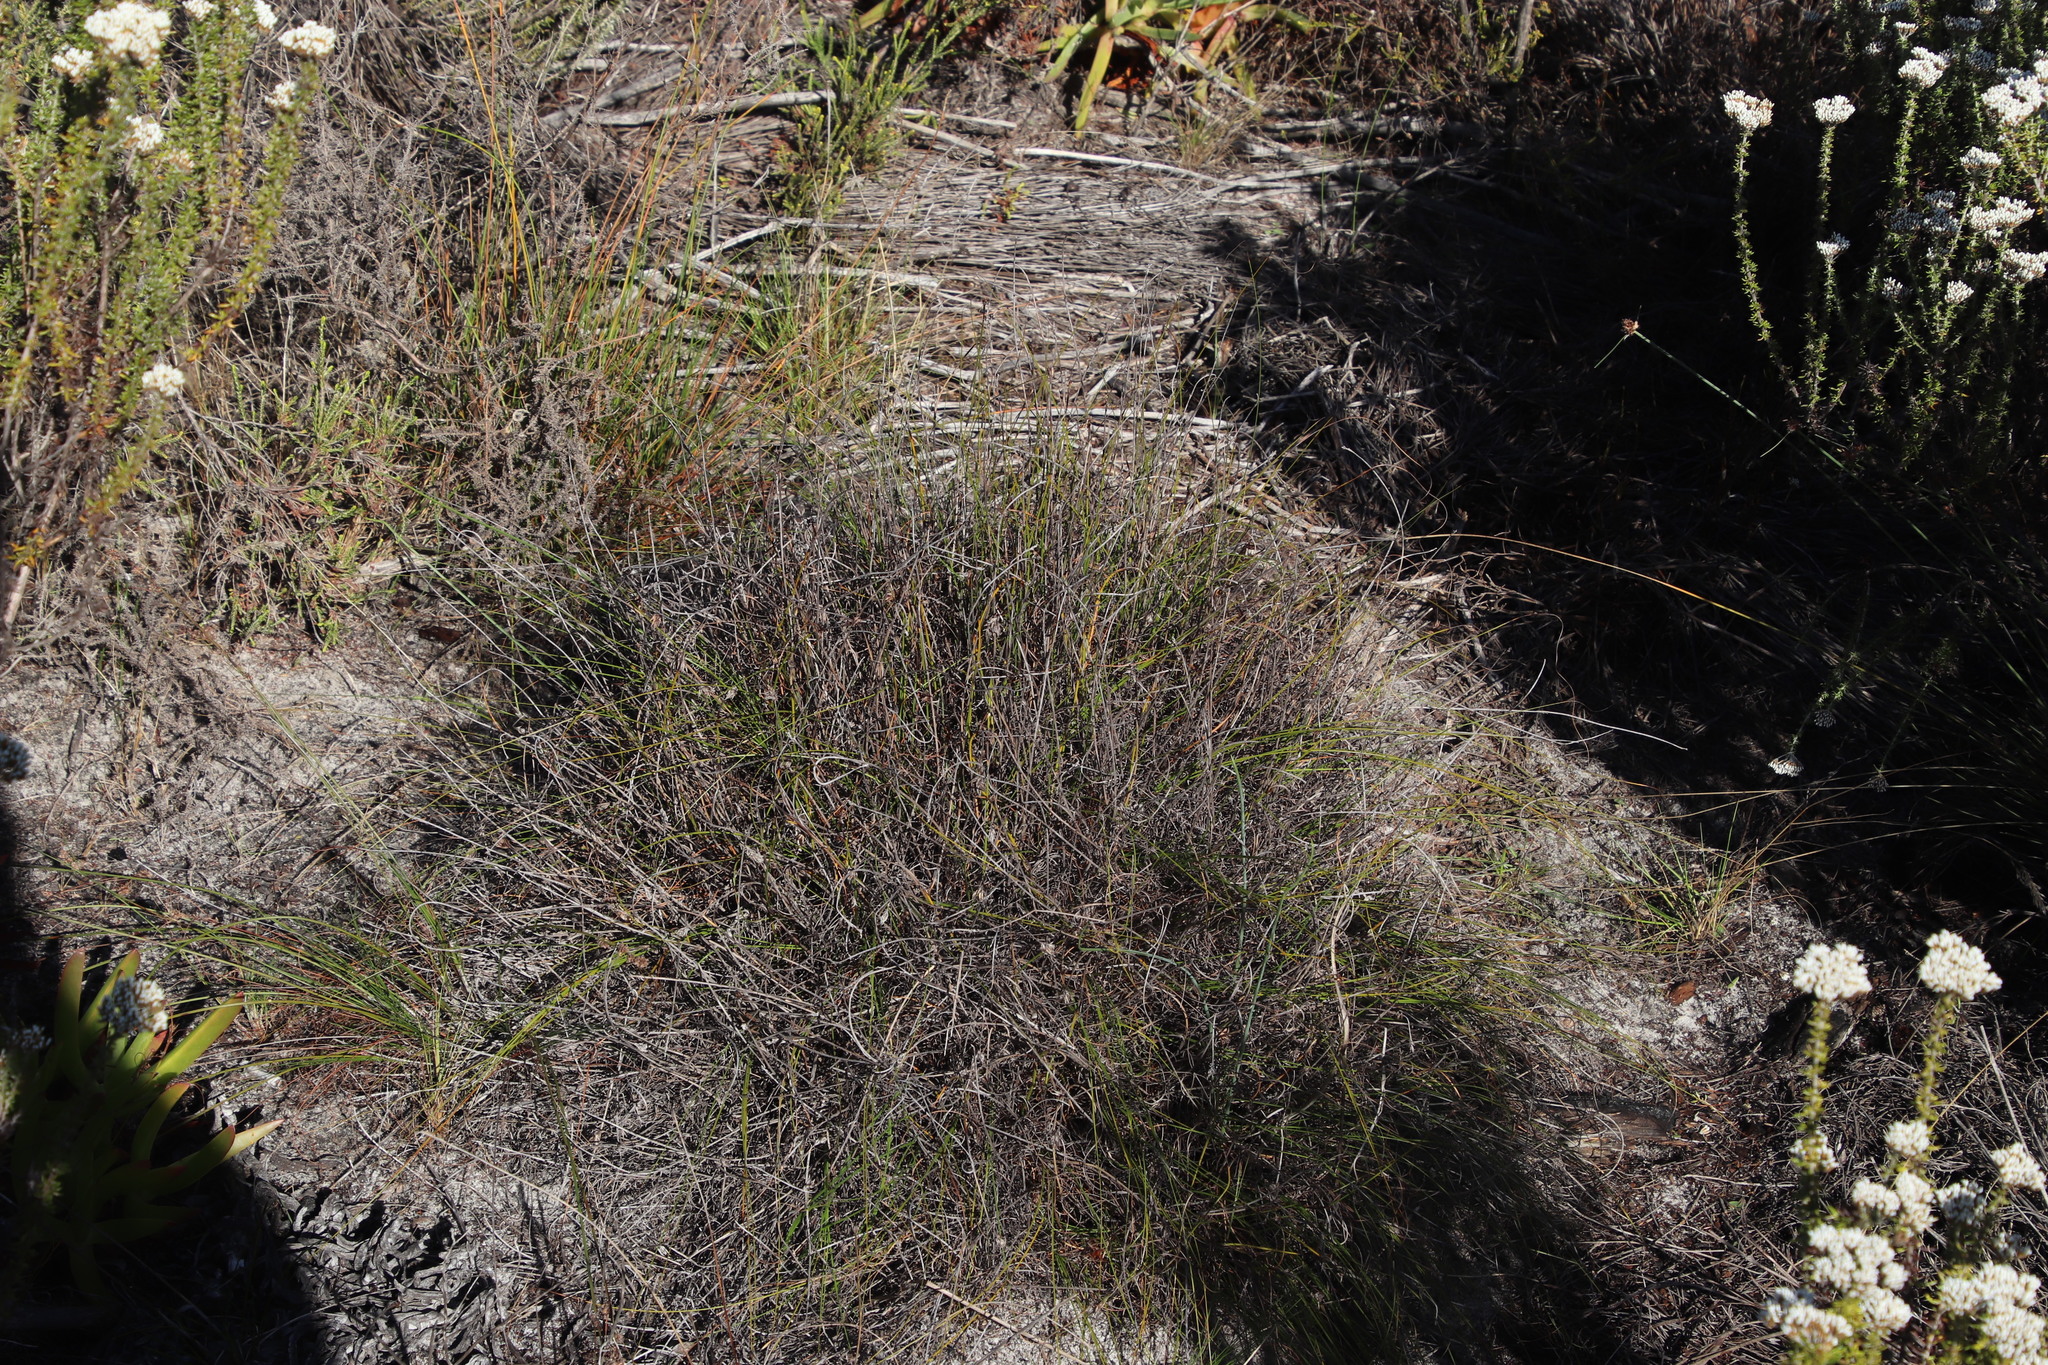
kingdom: Plantae
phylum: Tracheophyta
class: Liliopsida
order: Poales
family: Cyperaceae
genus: Tetraria
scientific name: Tetraria crinifolia
